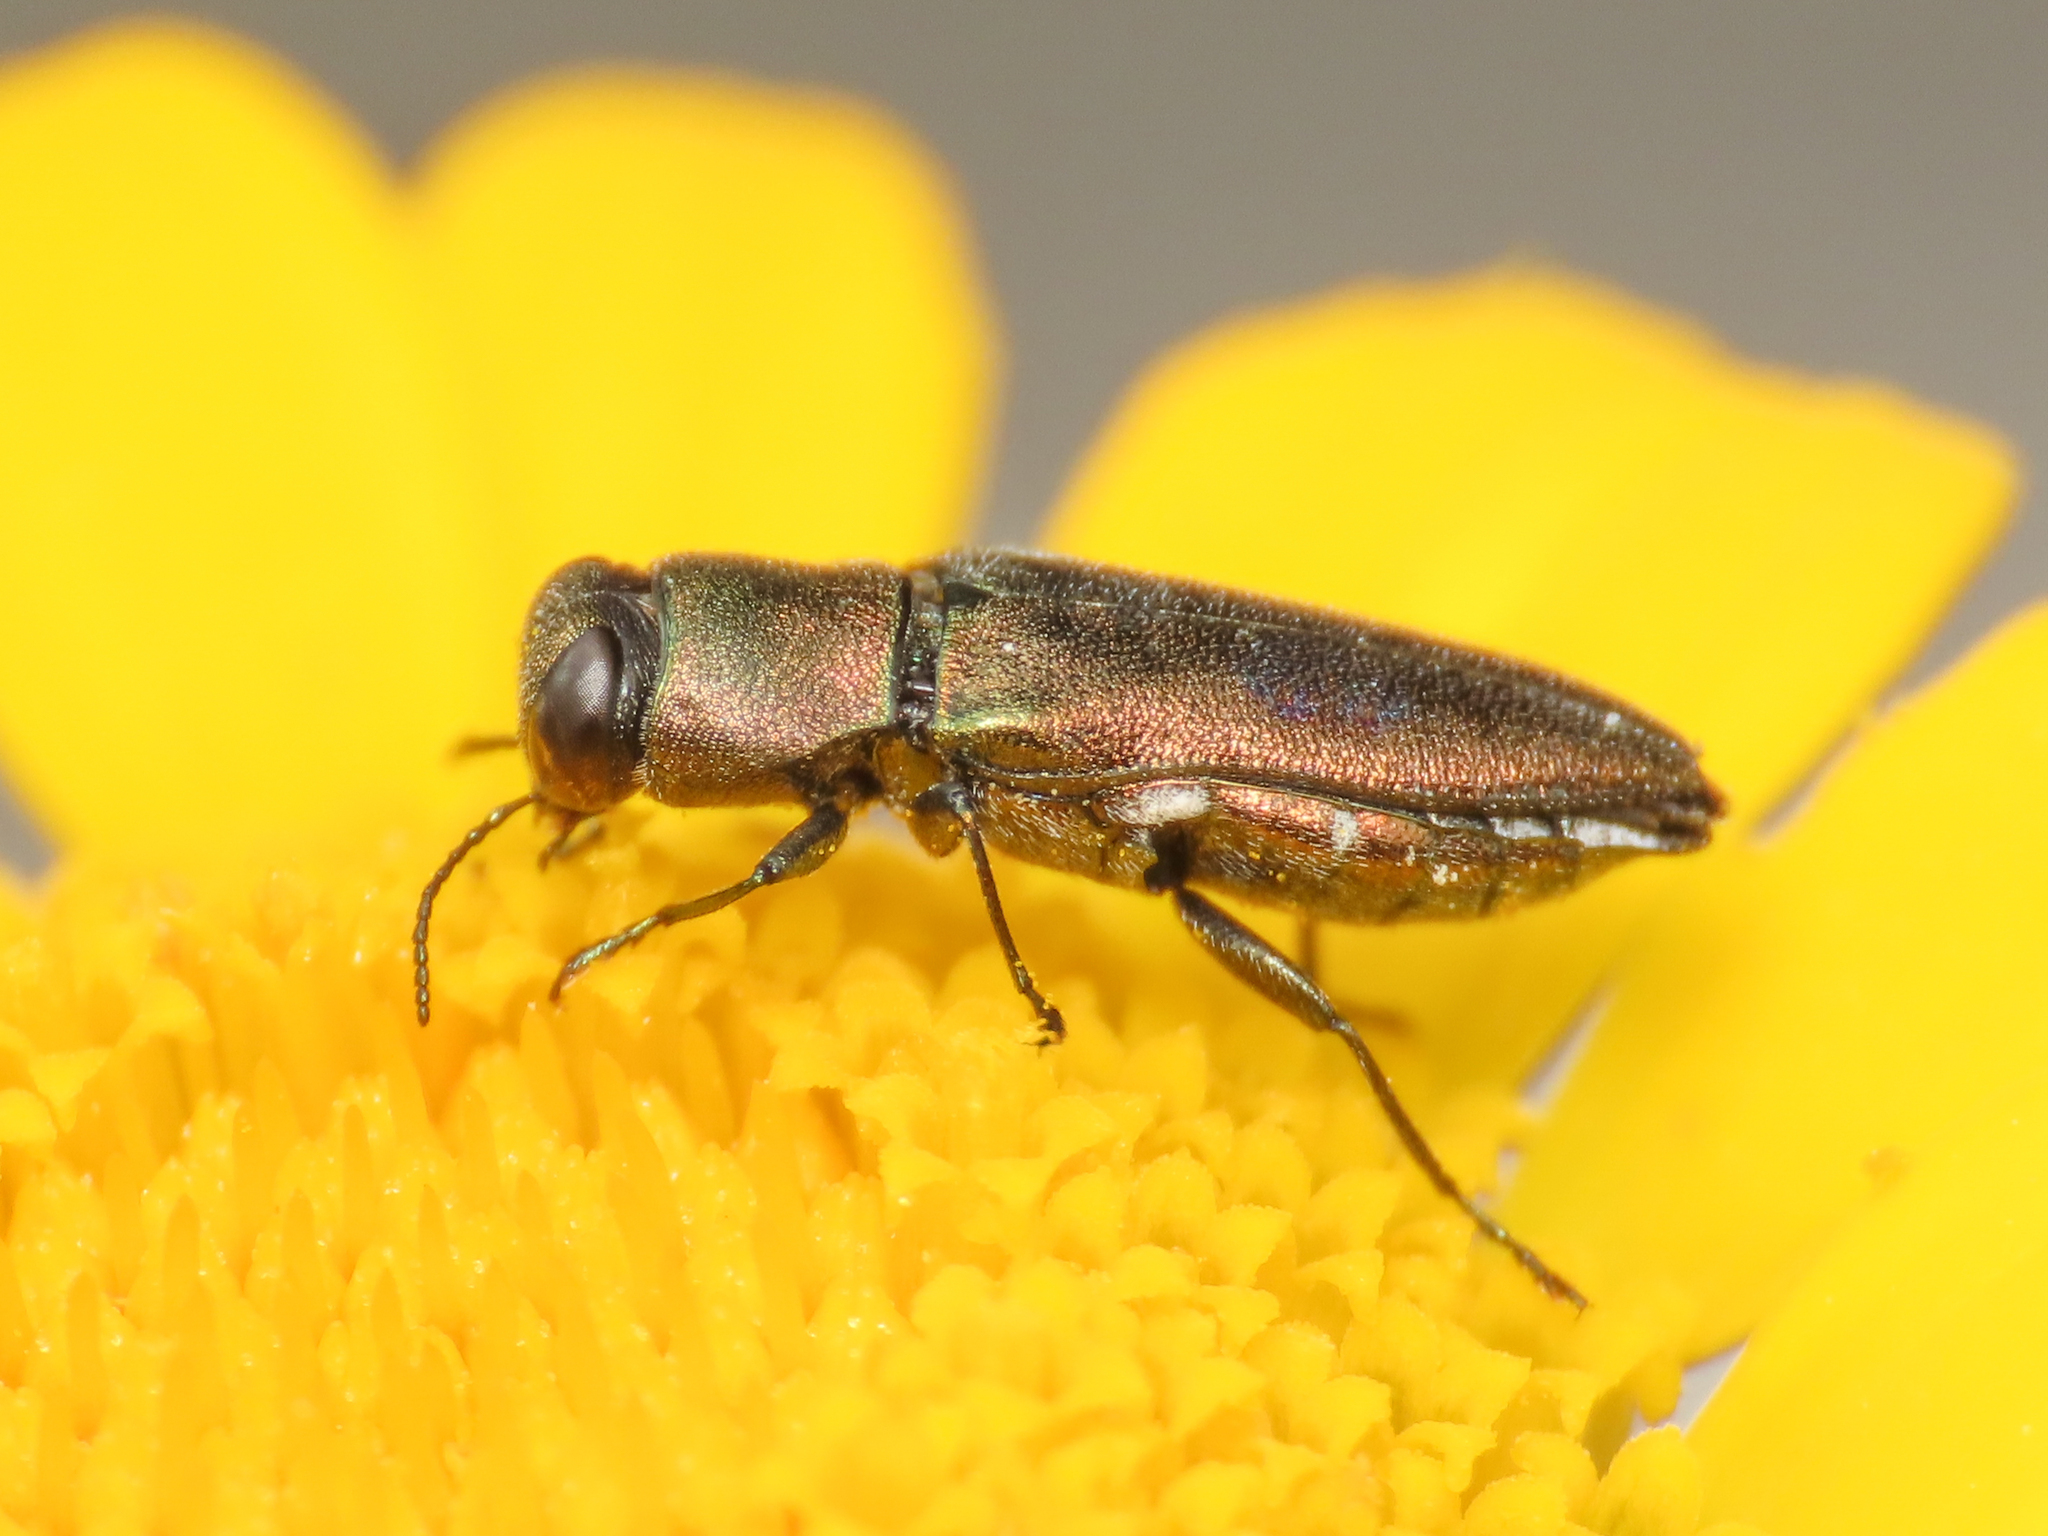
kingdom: Animalia
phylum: Arthropoda
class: Insecta
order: Coleoptera
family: Buprestidae
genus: Anthaxia
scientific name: Anthaxia millefolii
